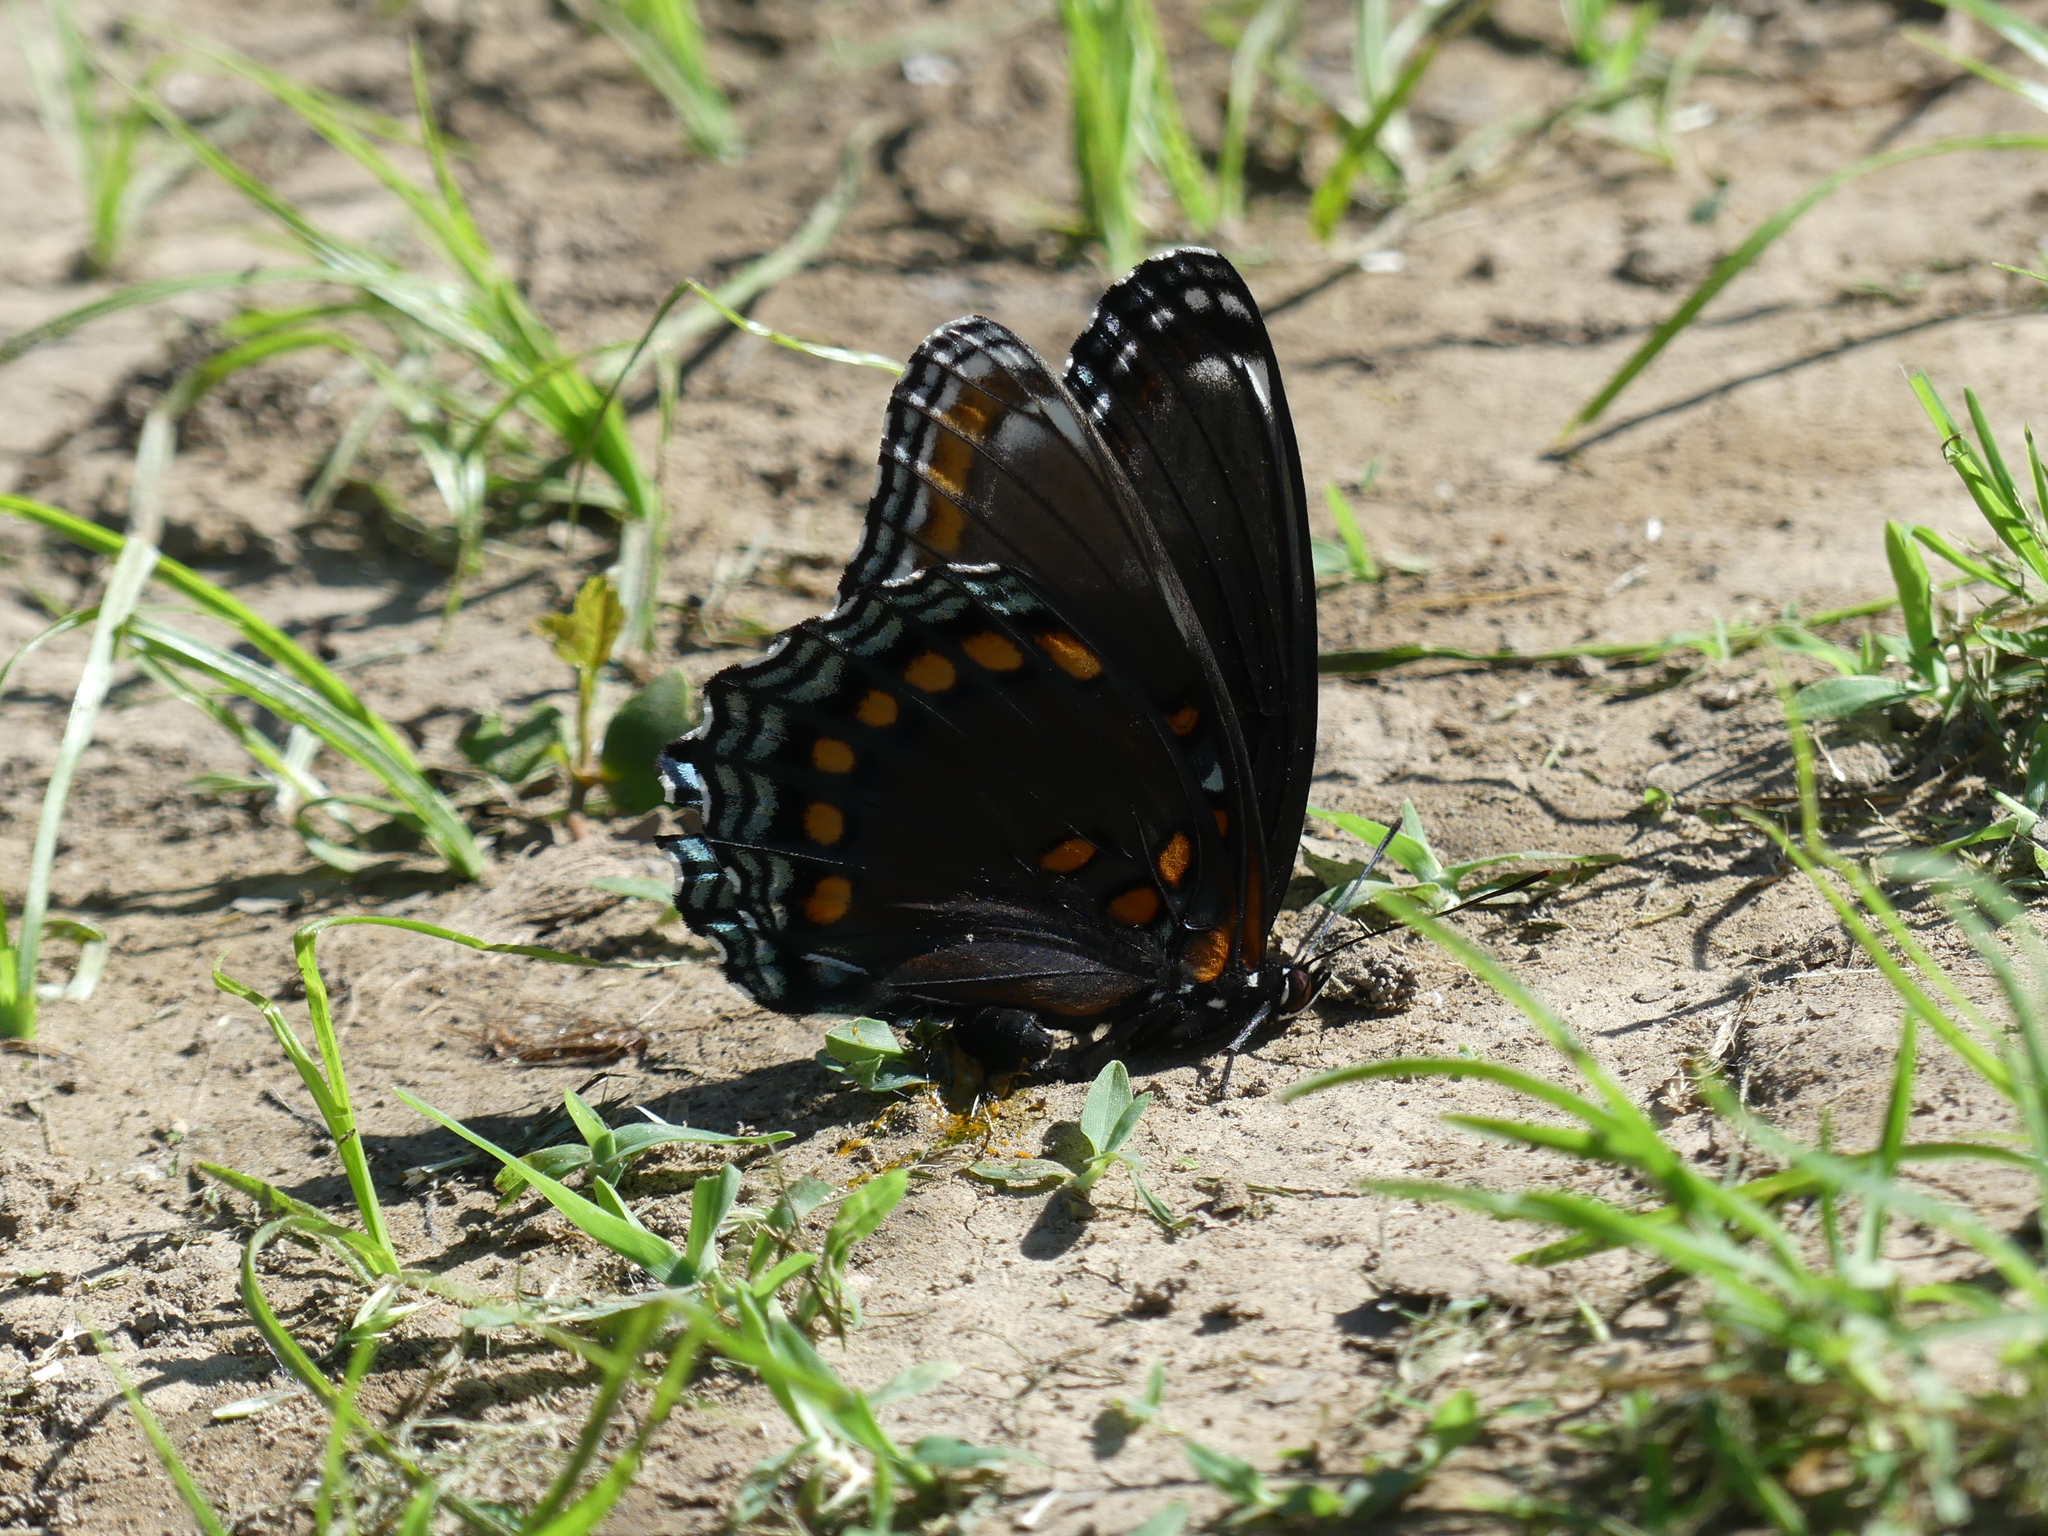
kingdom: Animalia
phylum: Arthropoda
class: Insecta
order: Lepidoptera
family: Nymphalidae
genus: Limenitis
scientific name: Limenitis astyanax
